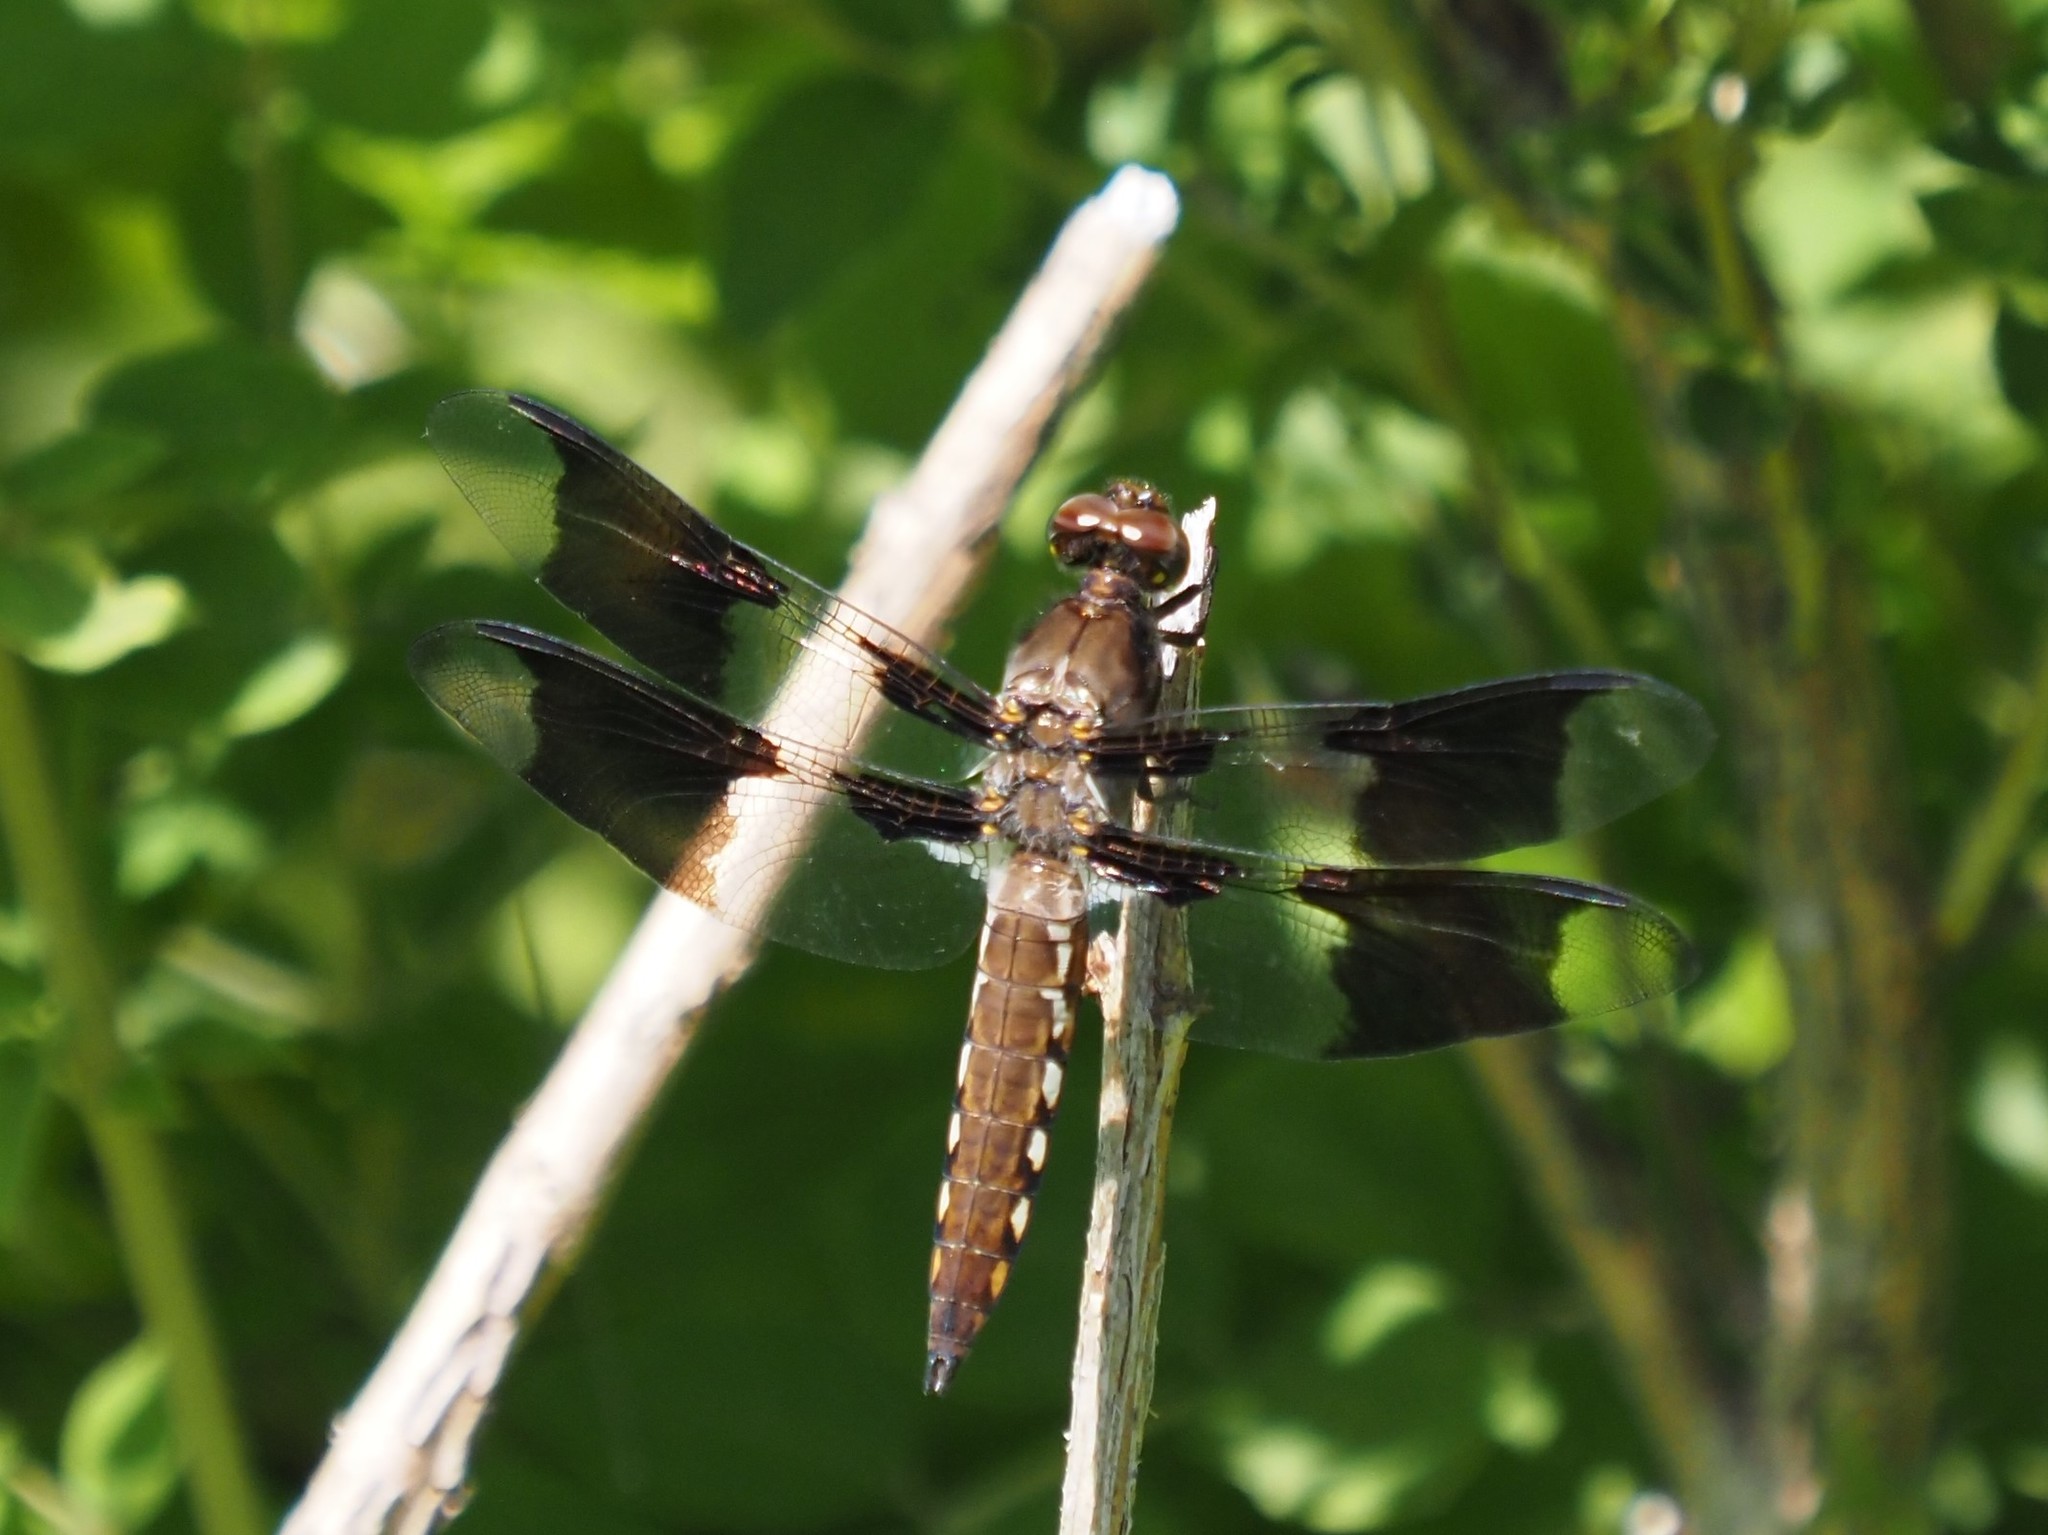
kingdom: Animalia
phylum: Arthropoda
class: Insecta
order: Odonata
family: Libellulidae
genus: Plathemis
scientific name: Plathemis lydia
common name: Common whitetail
